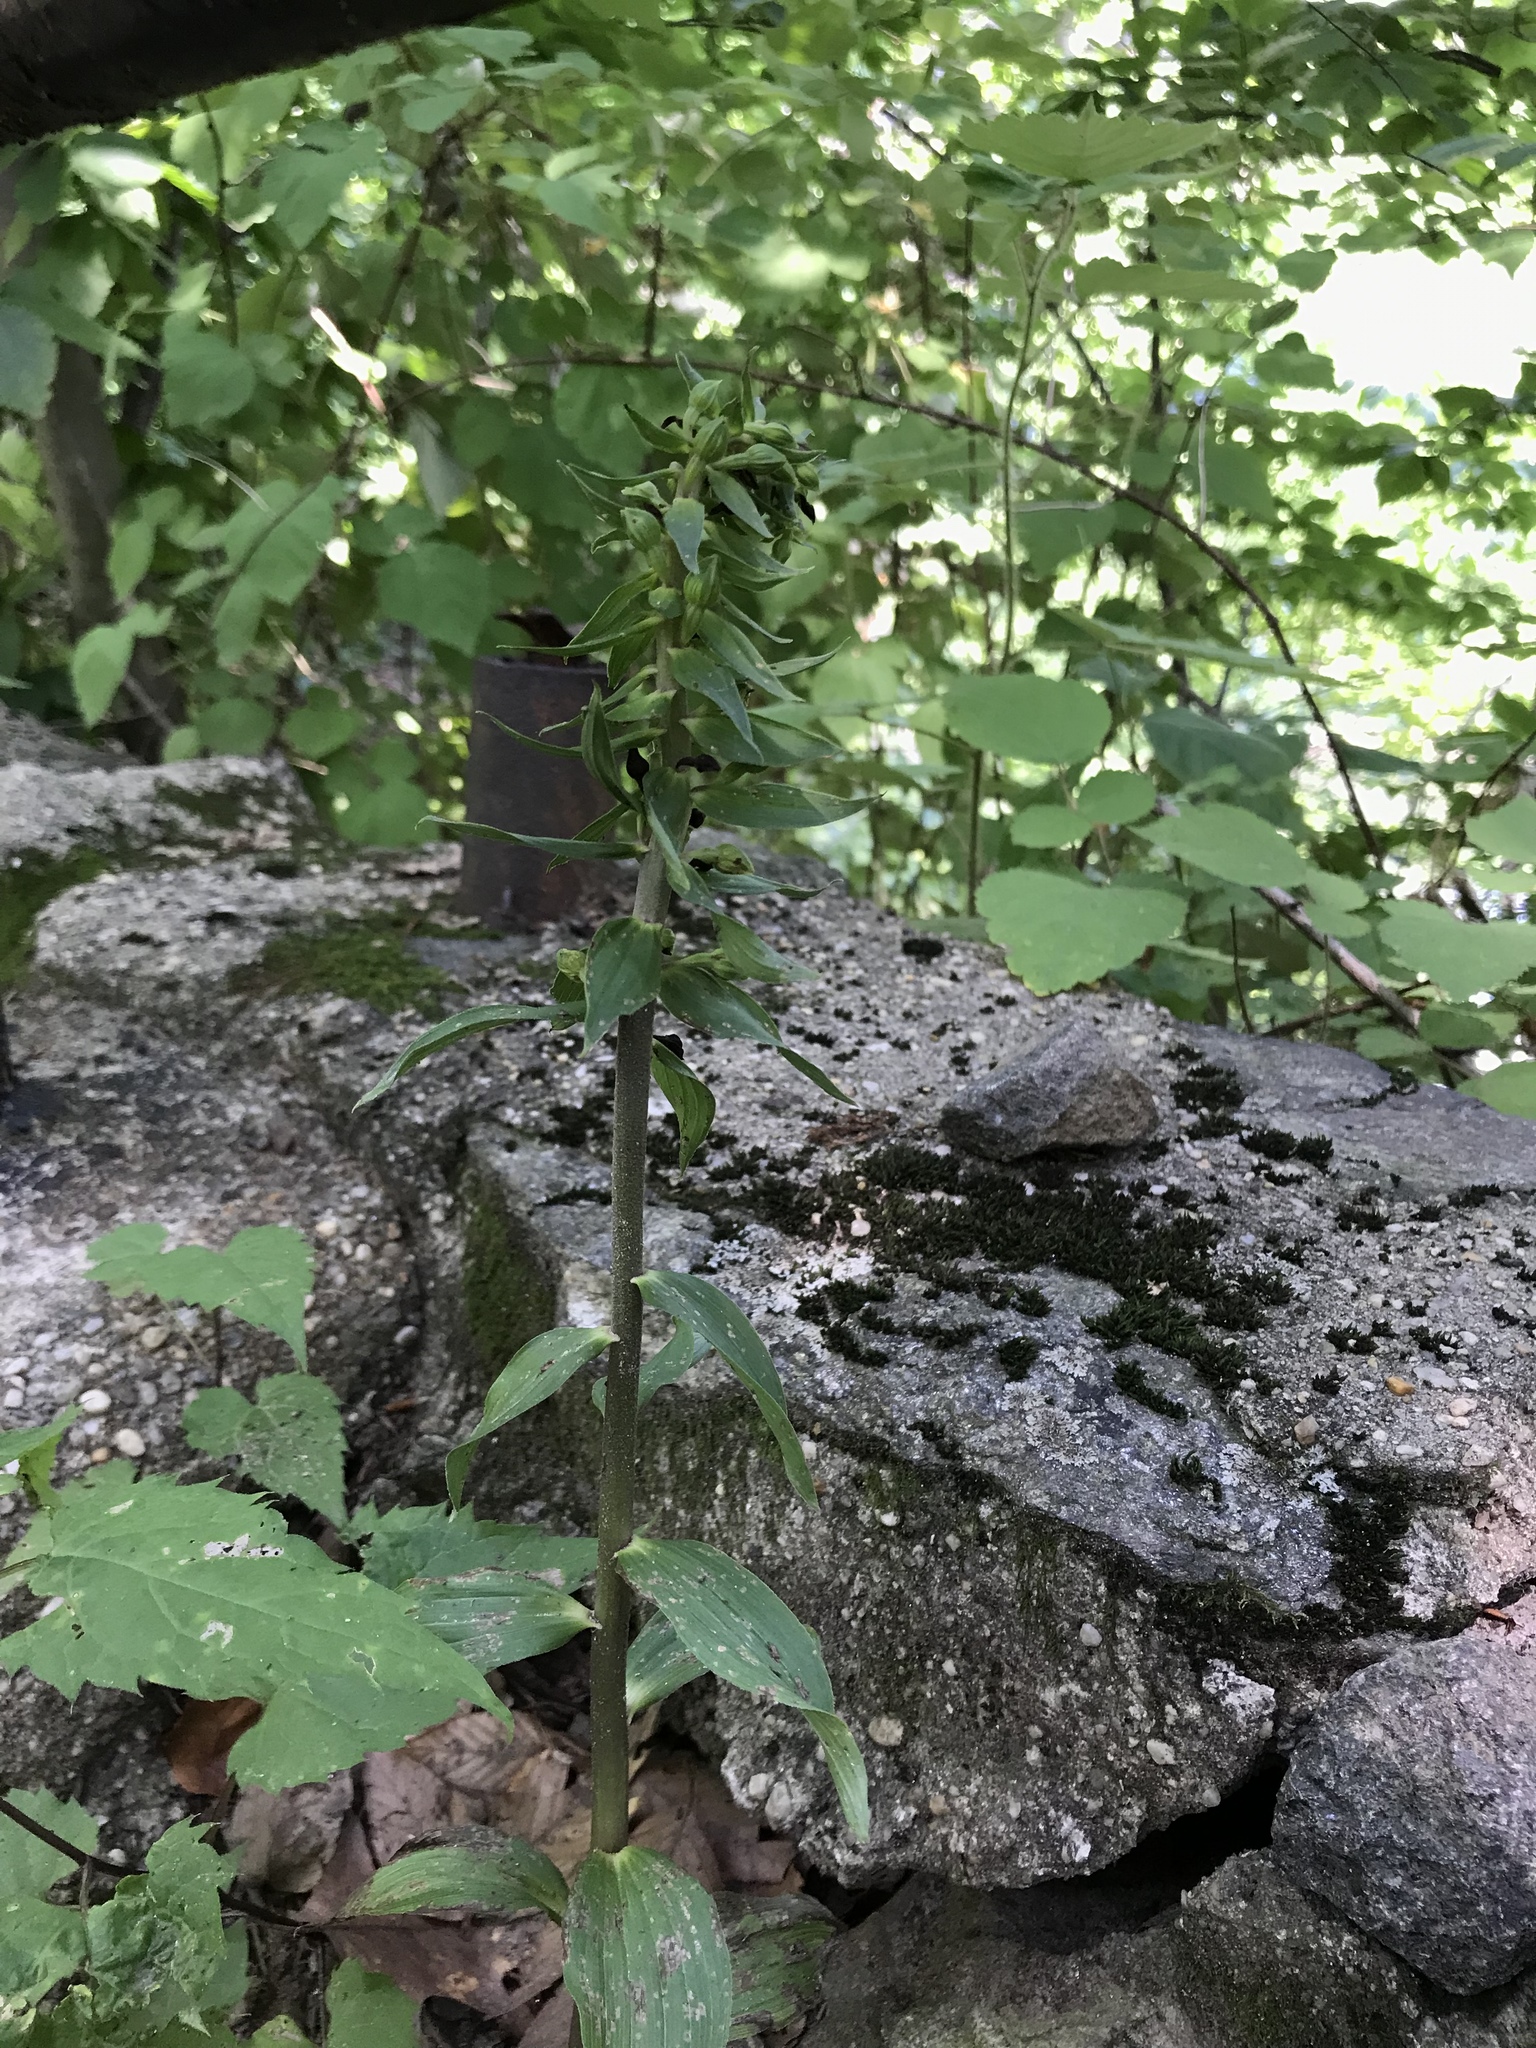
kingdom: Plantae
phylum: Tracheophyta
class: Liliopsida
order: Asparagales
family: Orchidaceae
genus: Epipactis
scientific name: Epipactis helleborine
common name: Broad-leaved helleborine
